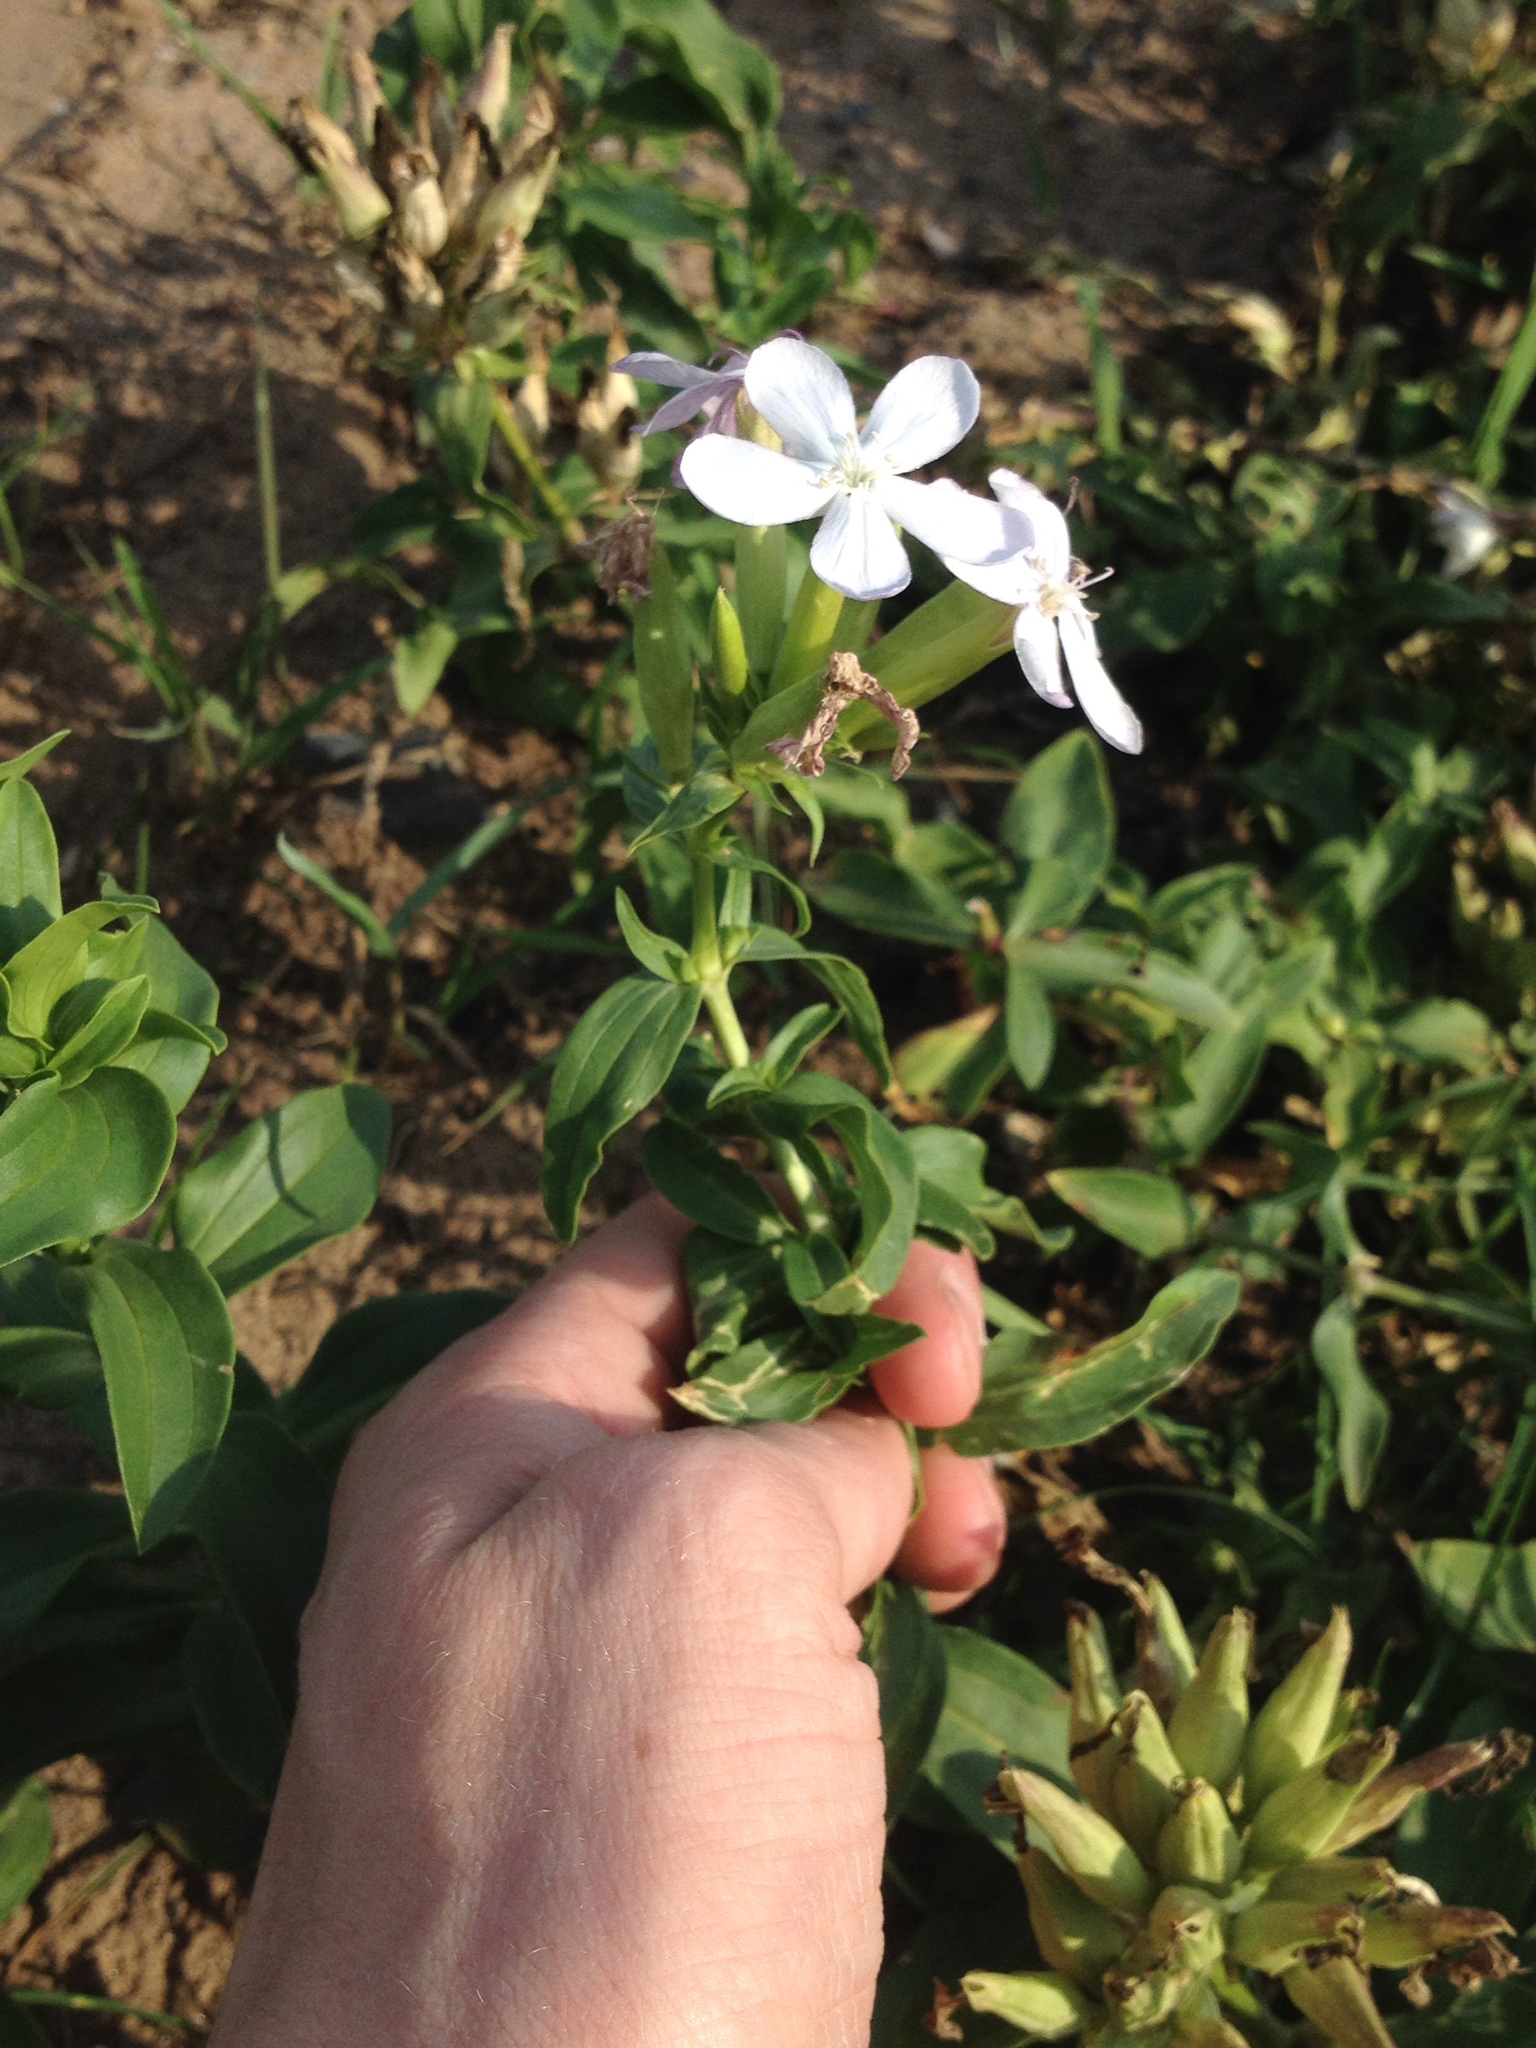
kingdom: Plantae
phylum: Tracheophyta
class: Magnoliopsida
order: Caryophyllales
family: Caryophyllaceae
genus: Saponaria
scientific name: Saponaria officinalis
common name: Soapwort
